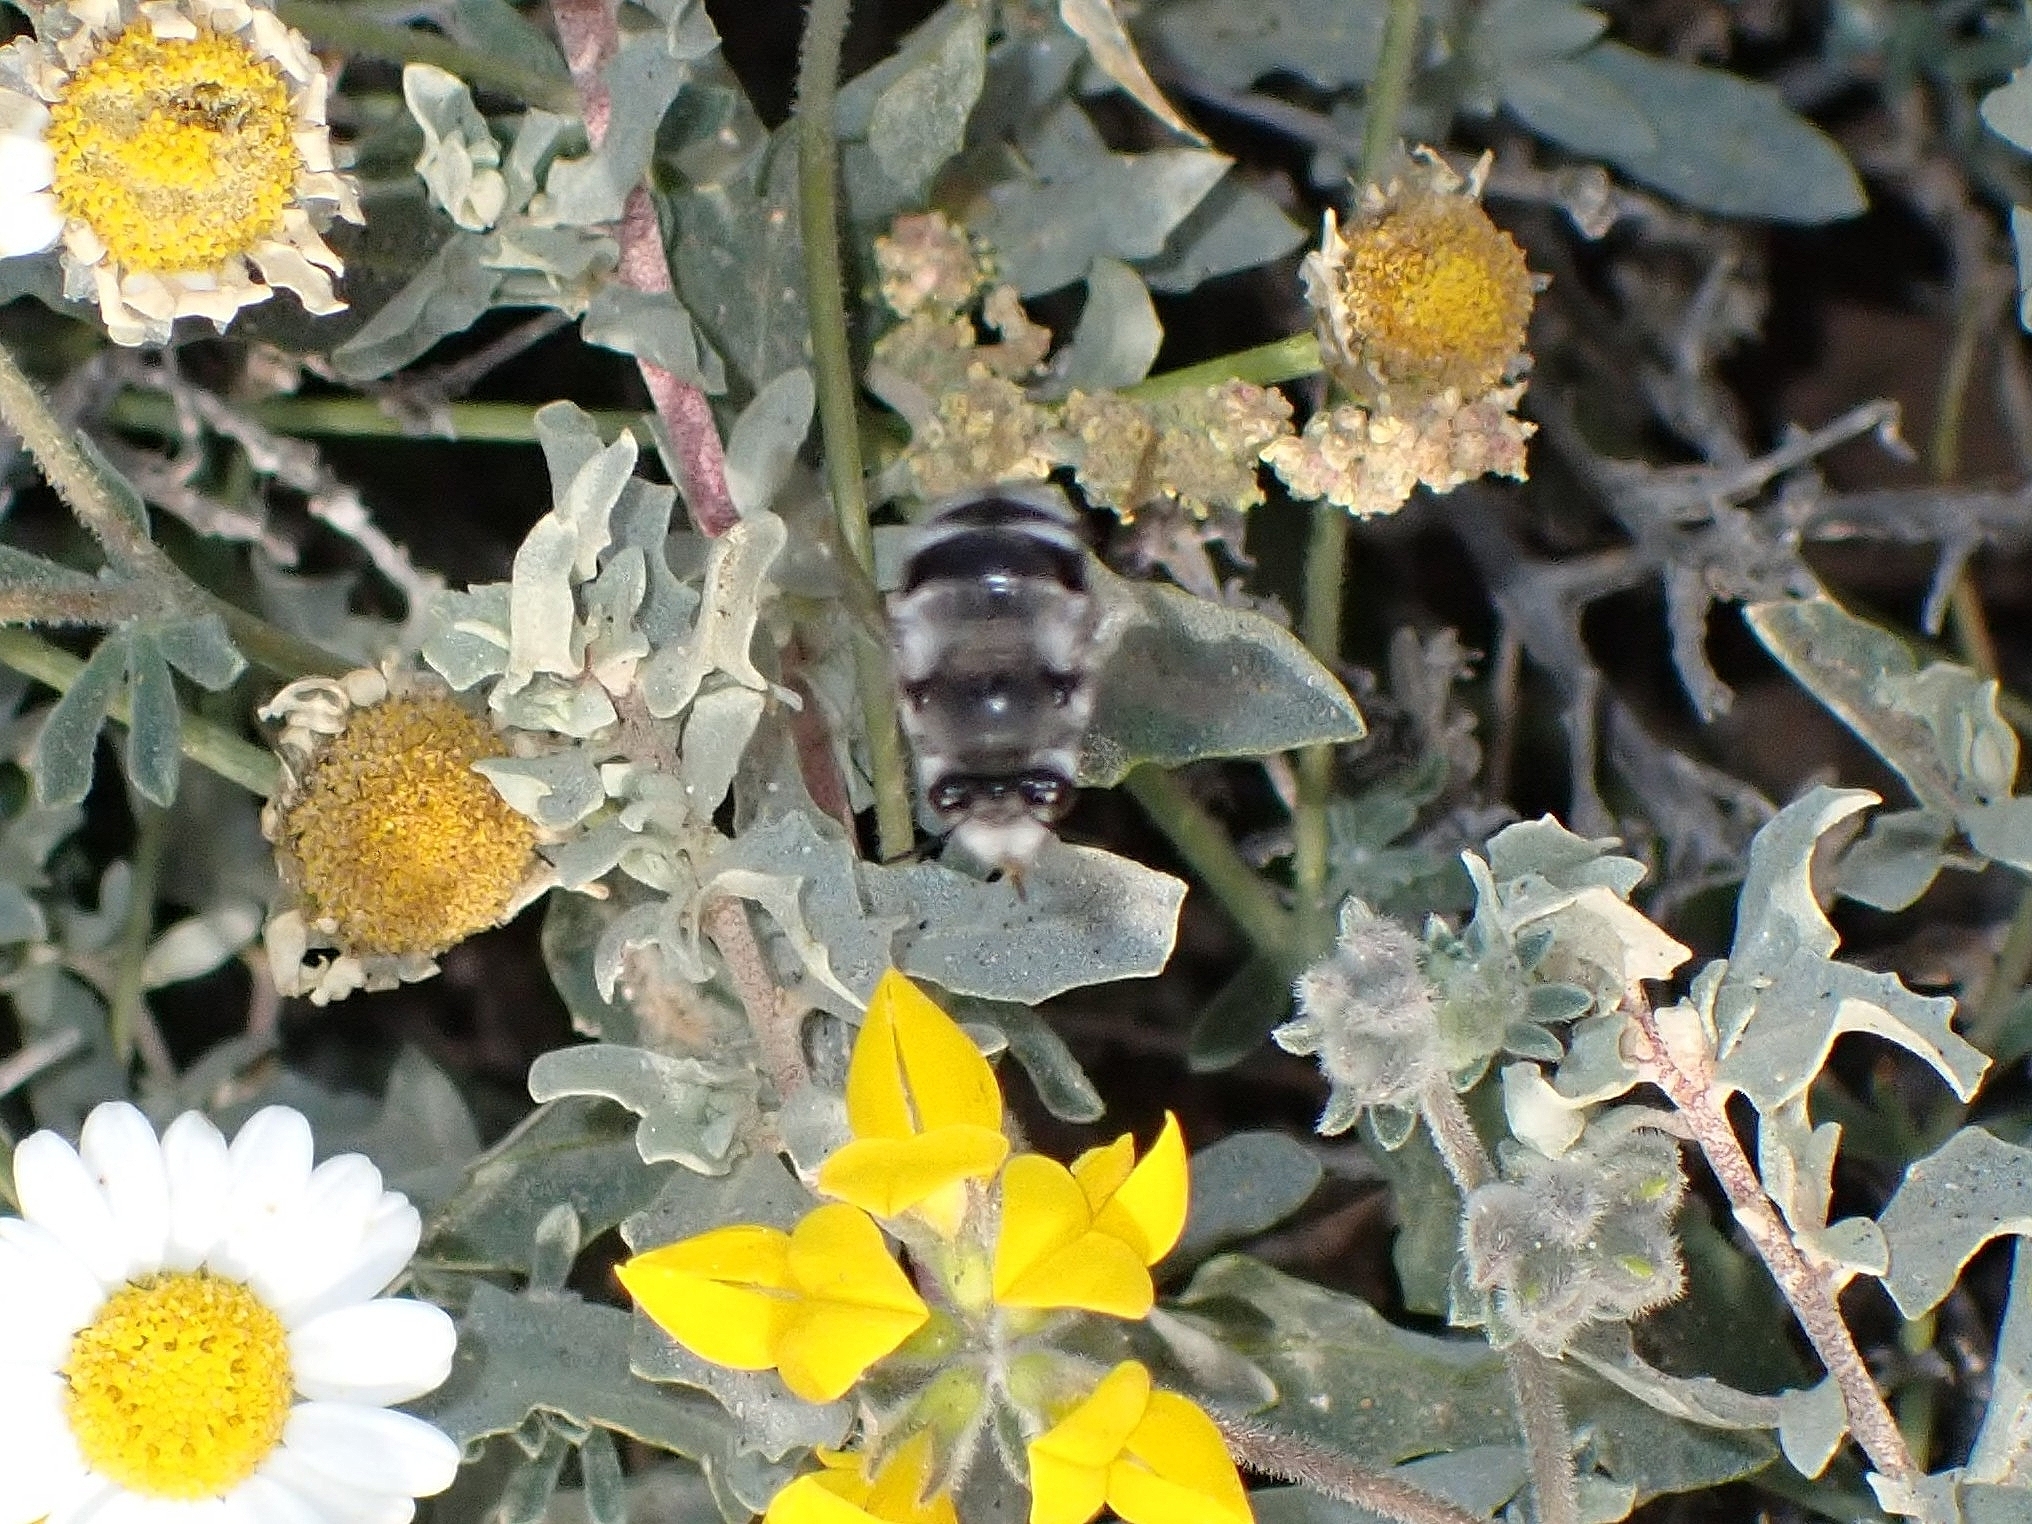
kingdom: Animalia
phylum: Arthropoda
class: Insecta
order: Hymenoptera
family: Apidae
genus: Anthophora
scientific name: Anthophora alluaudi
